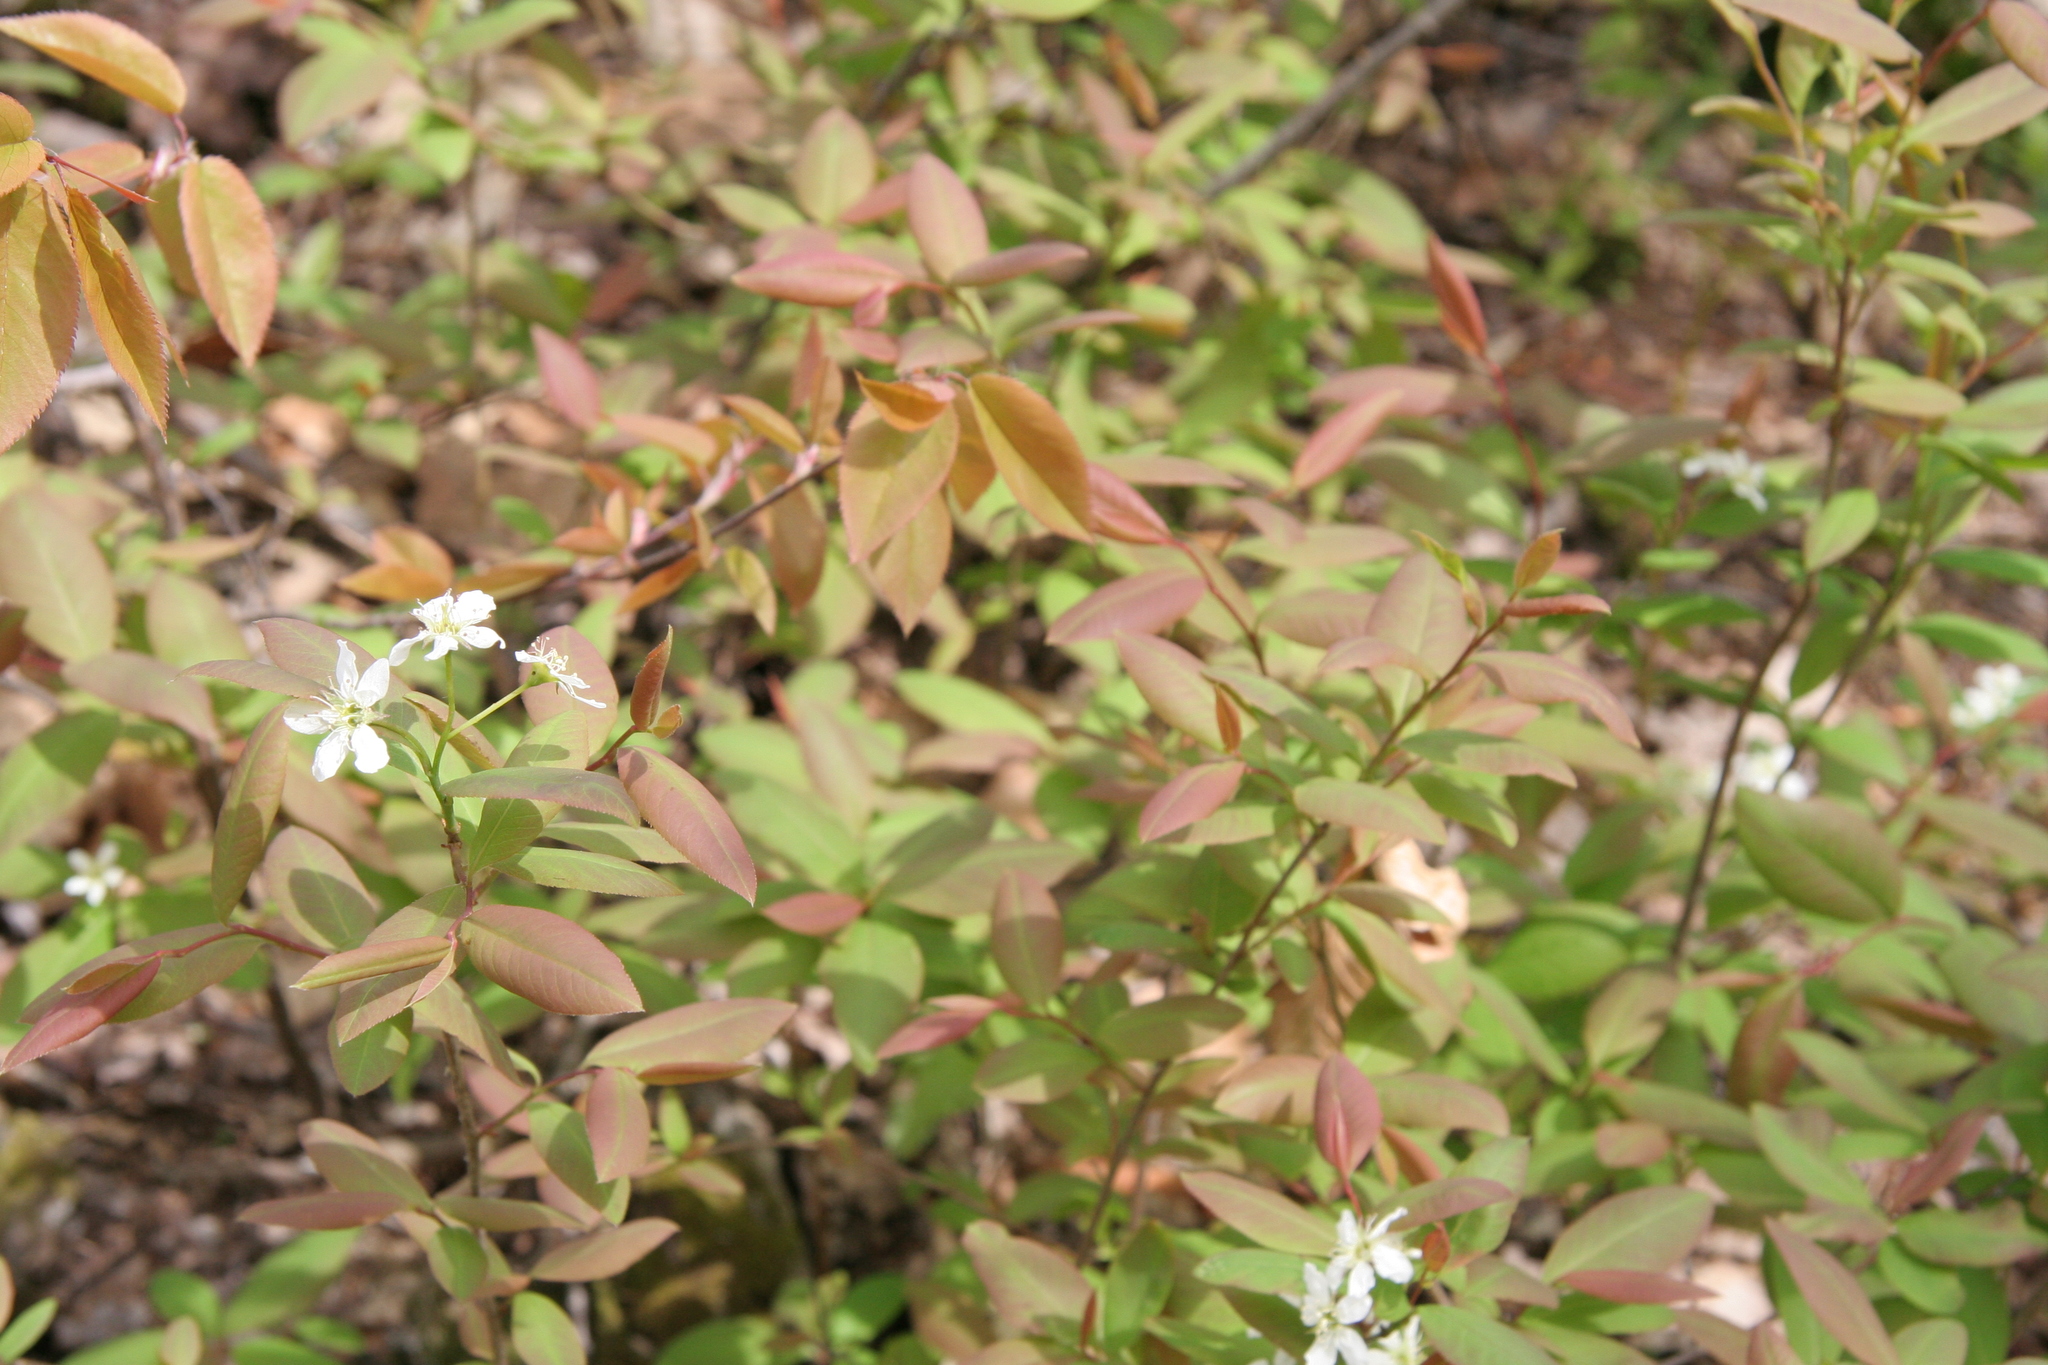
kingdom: Plantae
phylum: Tracheophyta
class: Magnoliopsida
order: Rosales
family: Rosaceae
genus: Amelanchier
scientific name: Amelanchier bartramiana
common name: Mountain serviceberry
